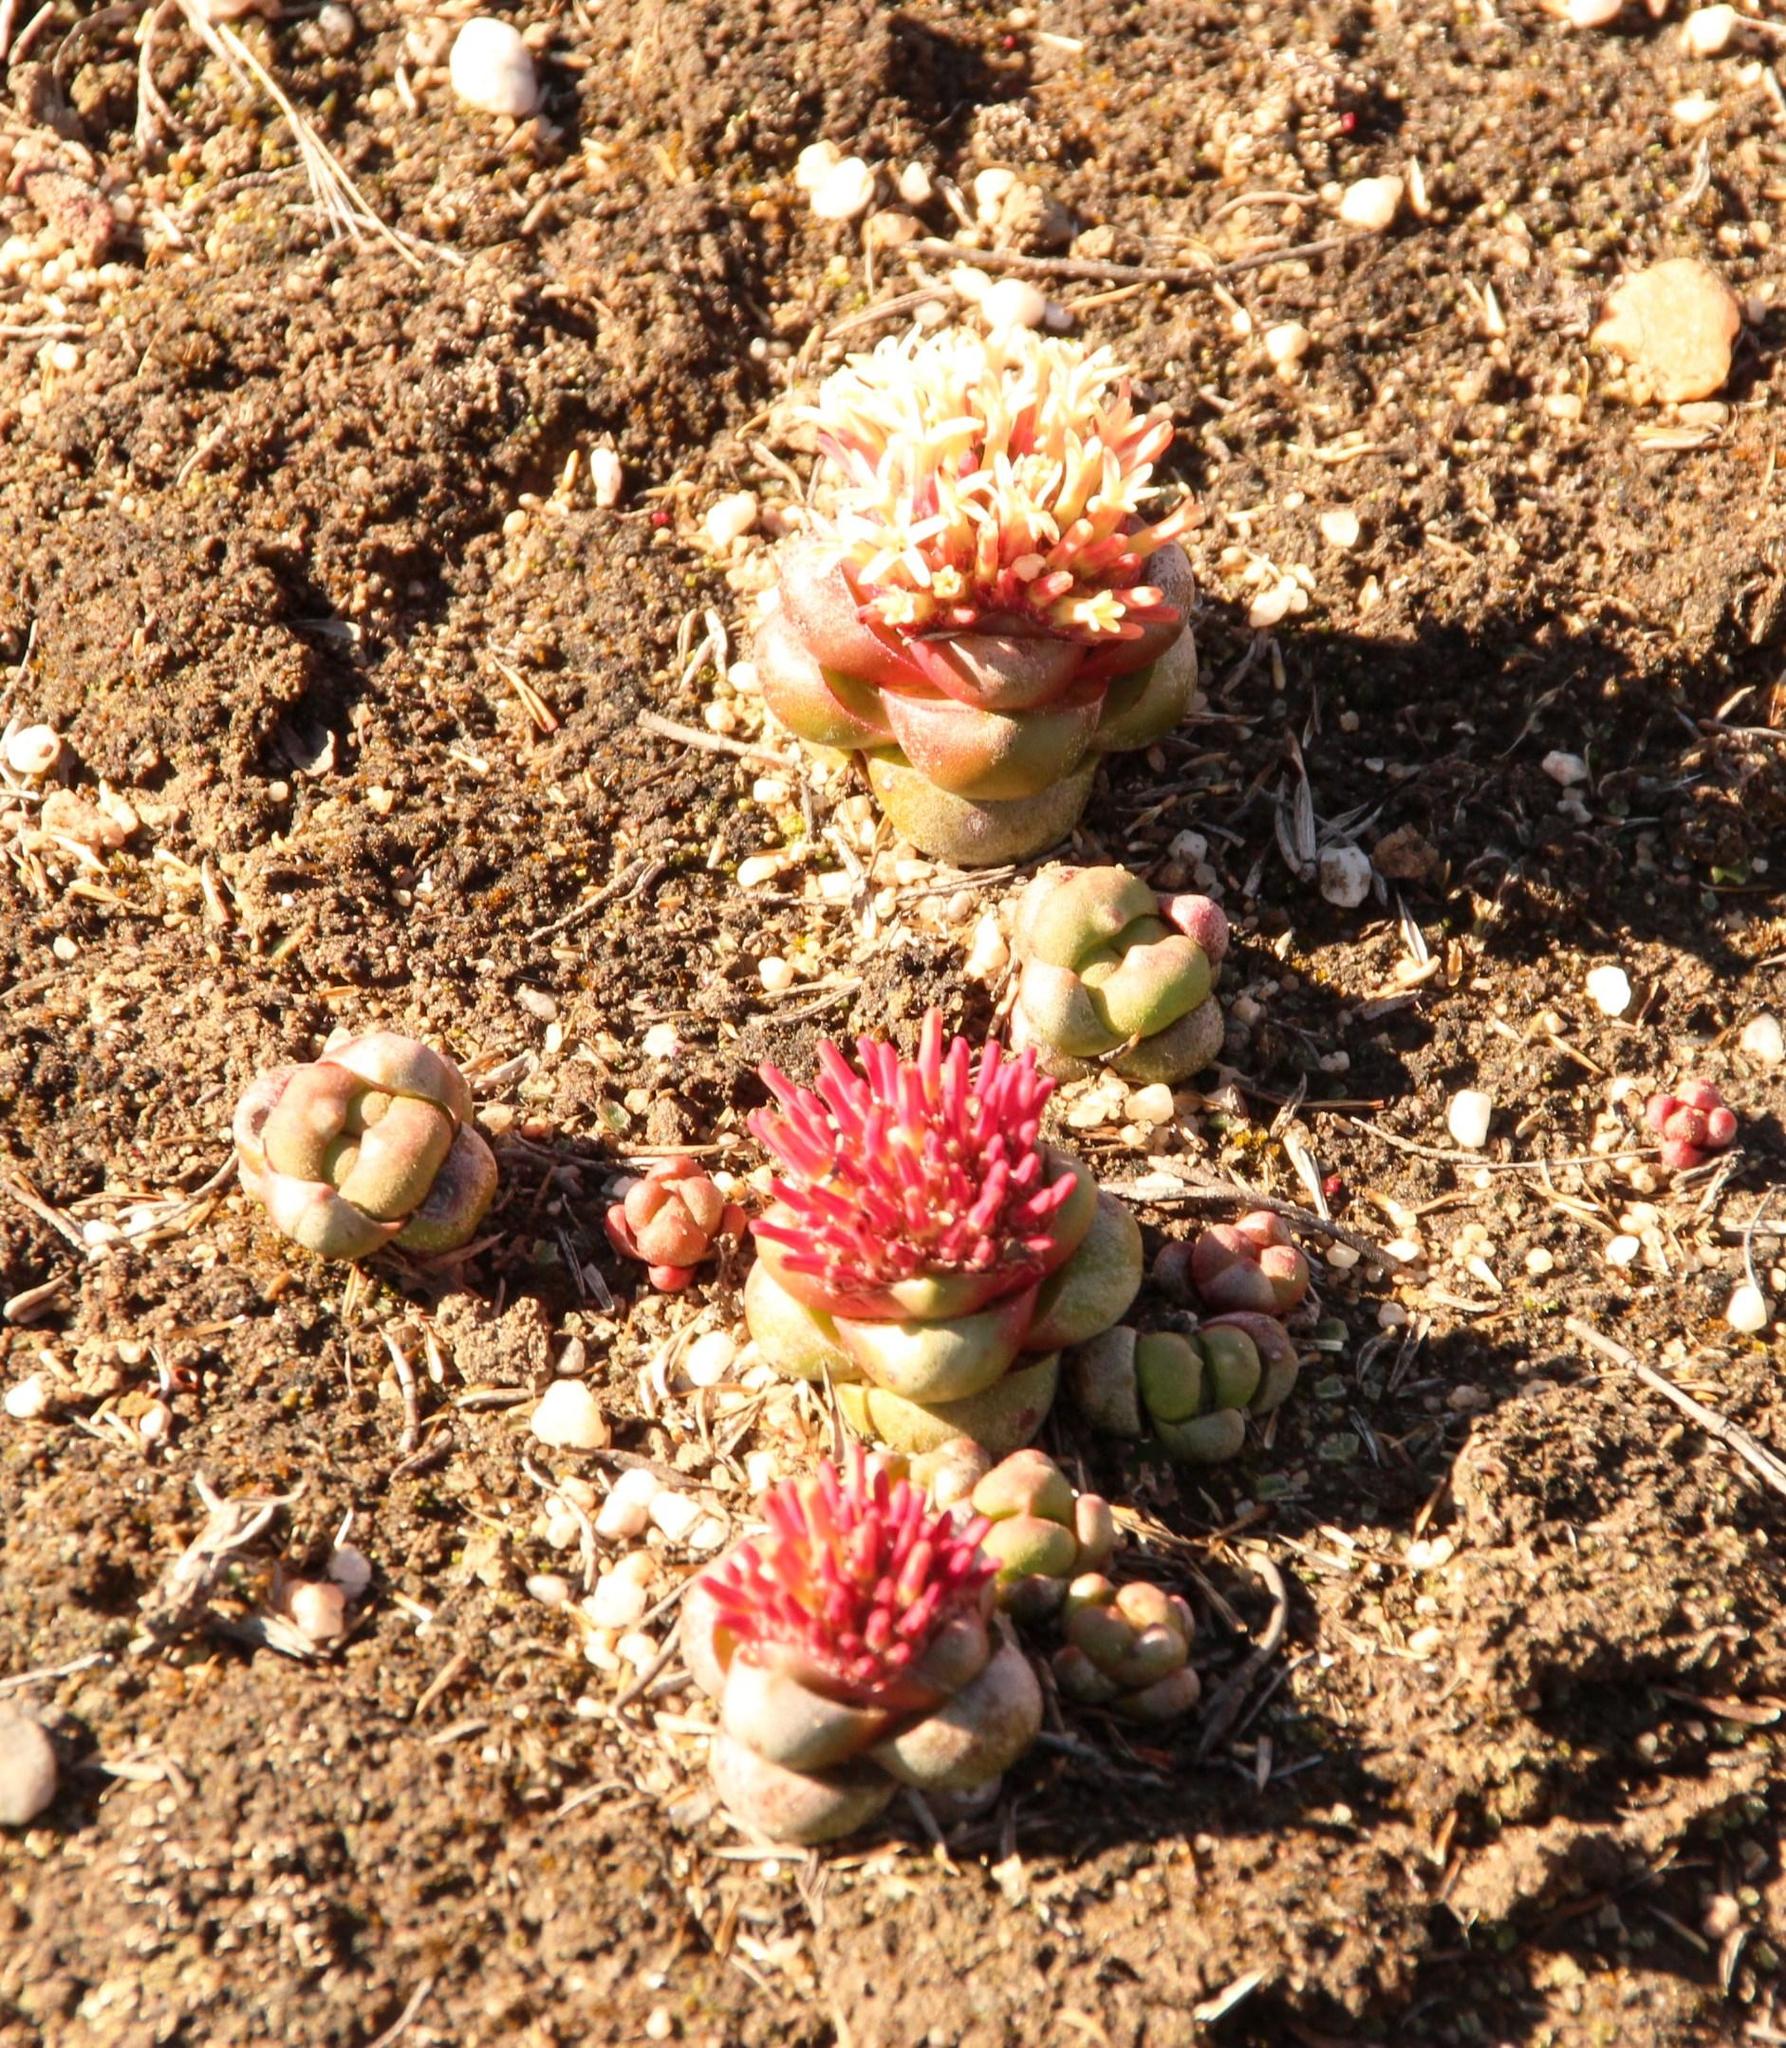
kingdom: Plantae
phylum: Tracheophyta
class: Magnoliopsida
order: Saxifragales
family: Crassulaceae
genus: Crassula
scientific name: Crassula columnaris
